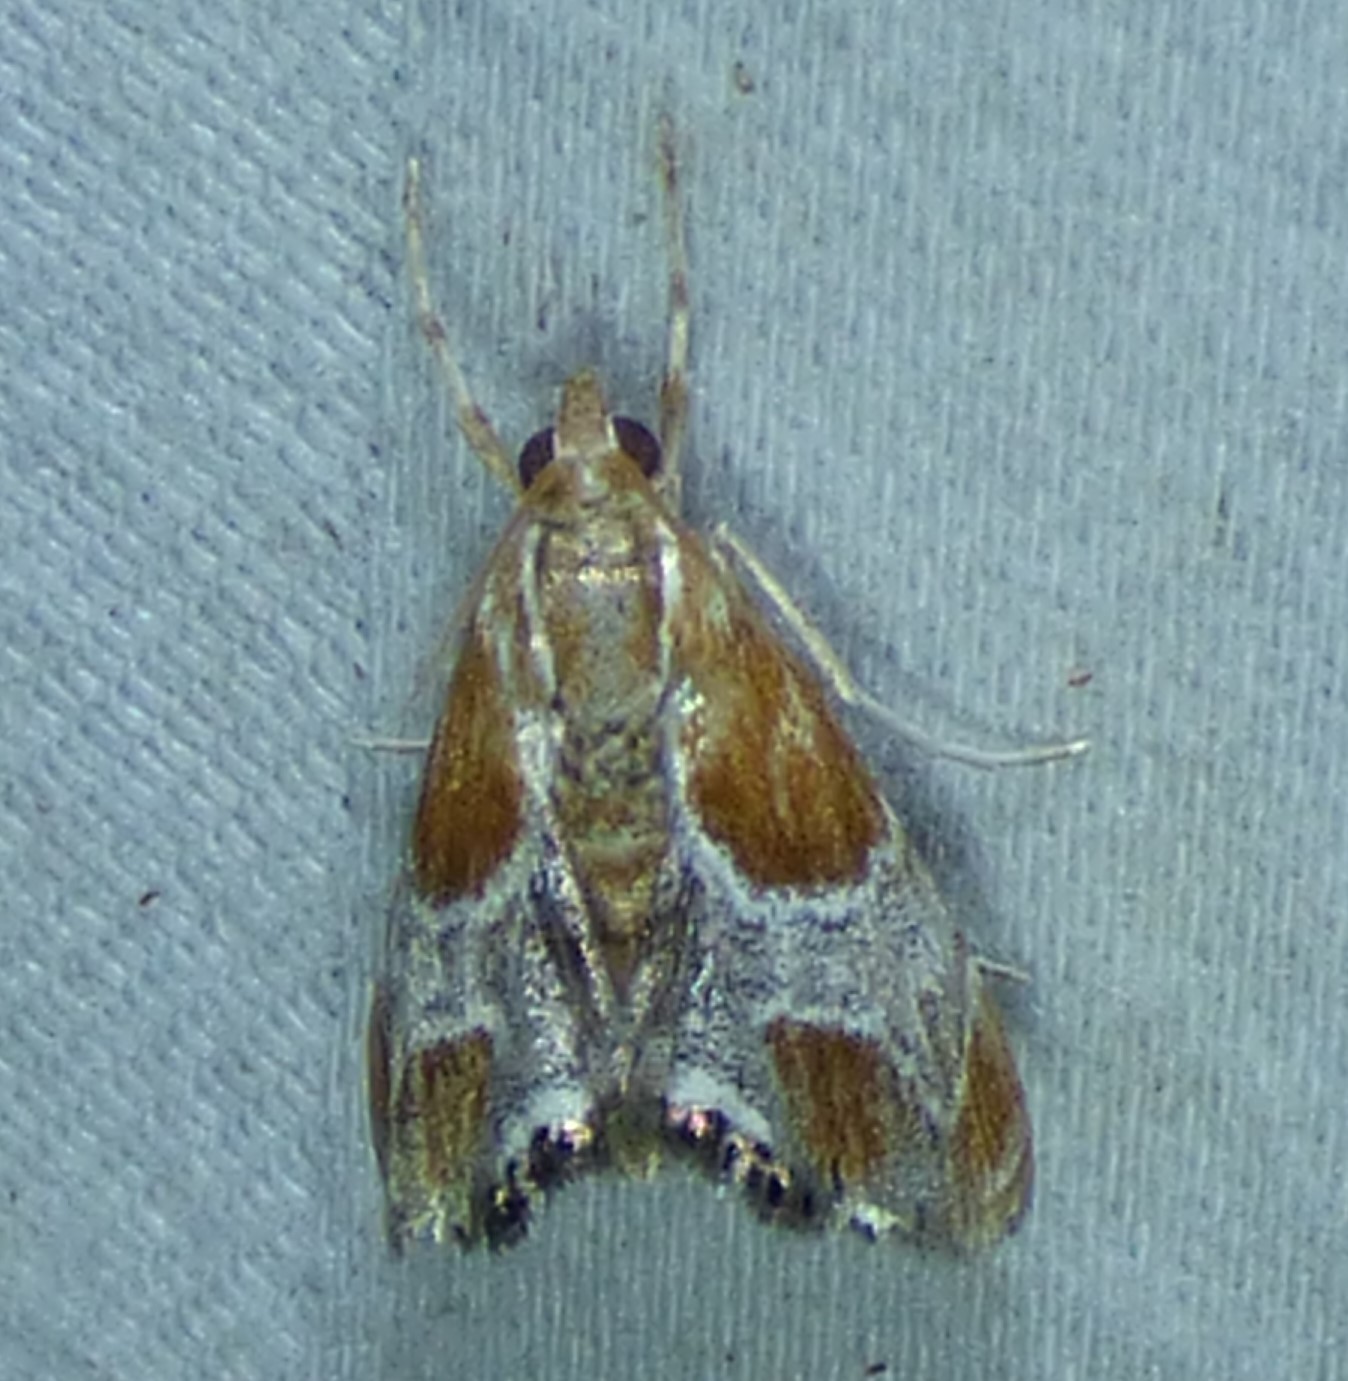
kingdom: Animalia
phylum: Arthropoda
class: Insecta
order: Lepidoptera
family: Crambidae
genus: Chalcoela
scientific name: Chalcoela pegasalis
